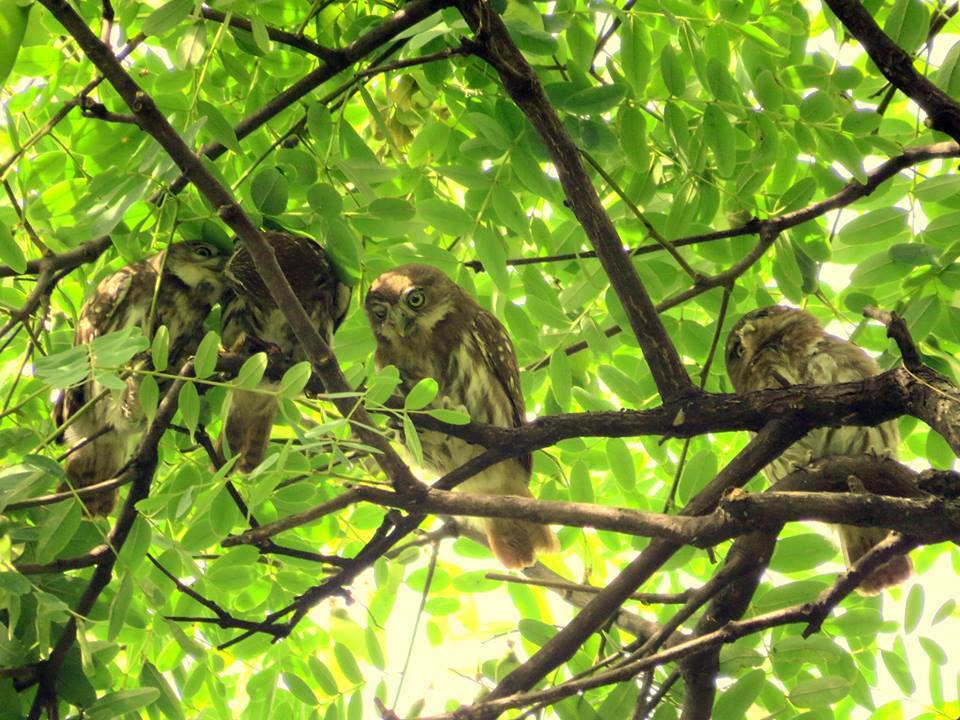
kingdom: Animalia
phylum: Chordata
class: Aves
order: Strigiformes
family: Strigidae
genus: Glaucidium
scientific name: Glaucidium brasilianum
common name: Ferruginous pygmy-owl
